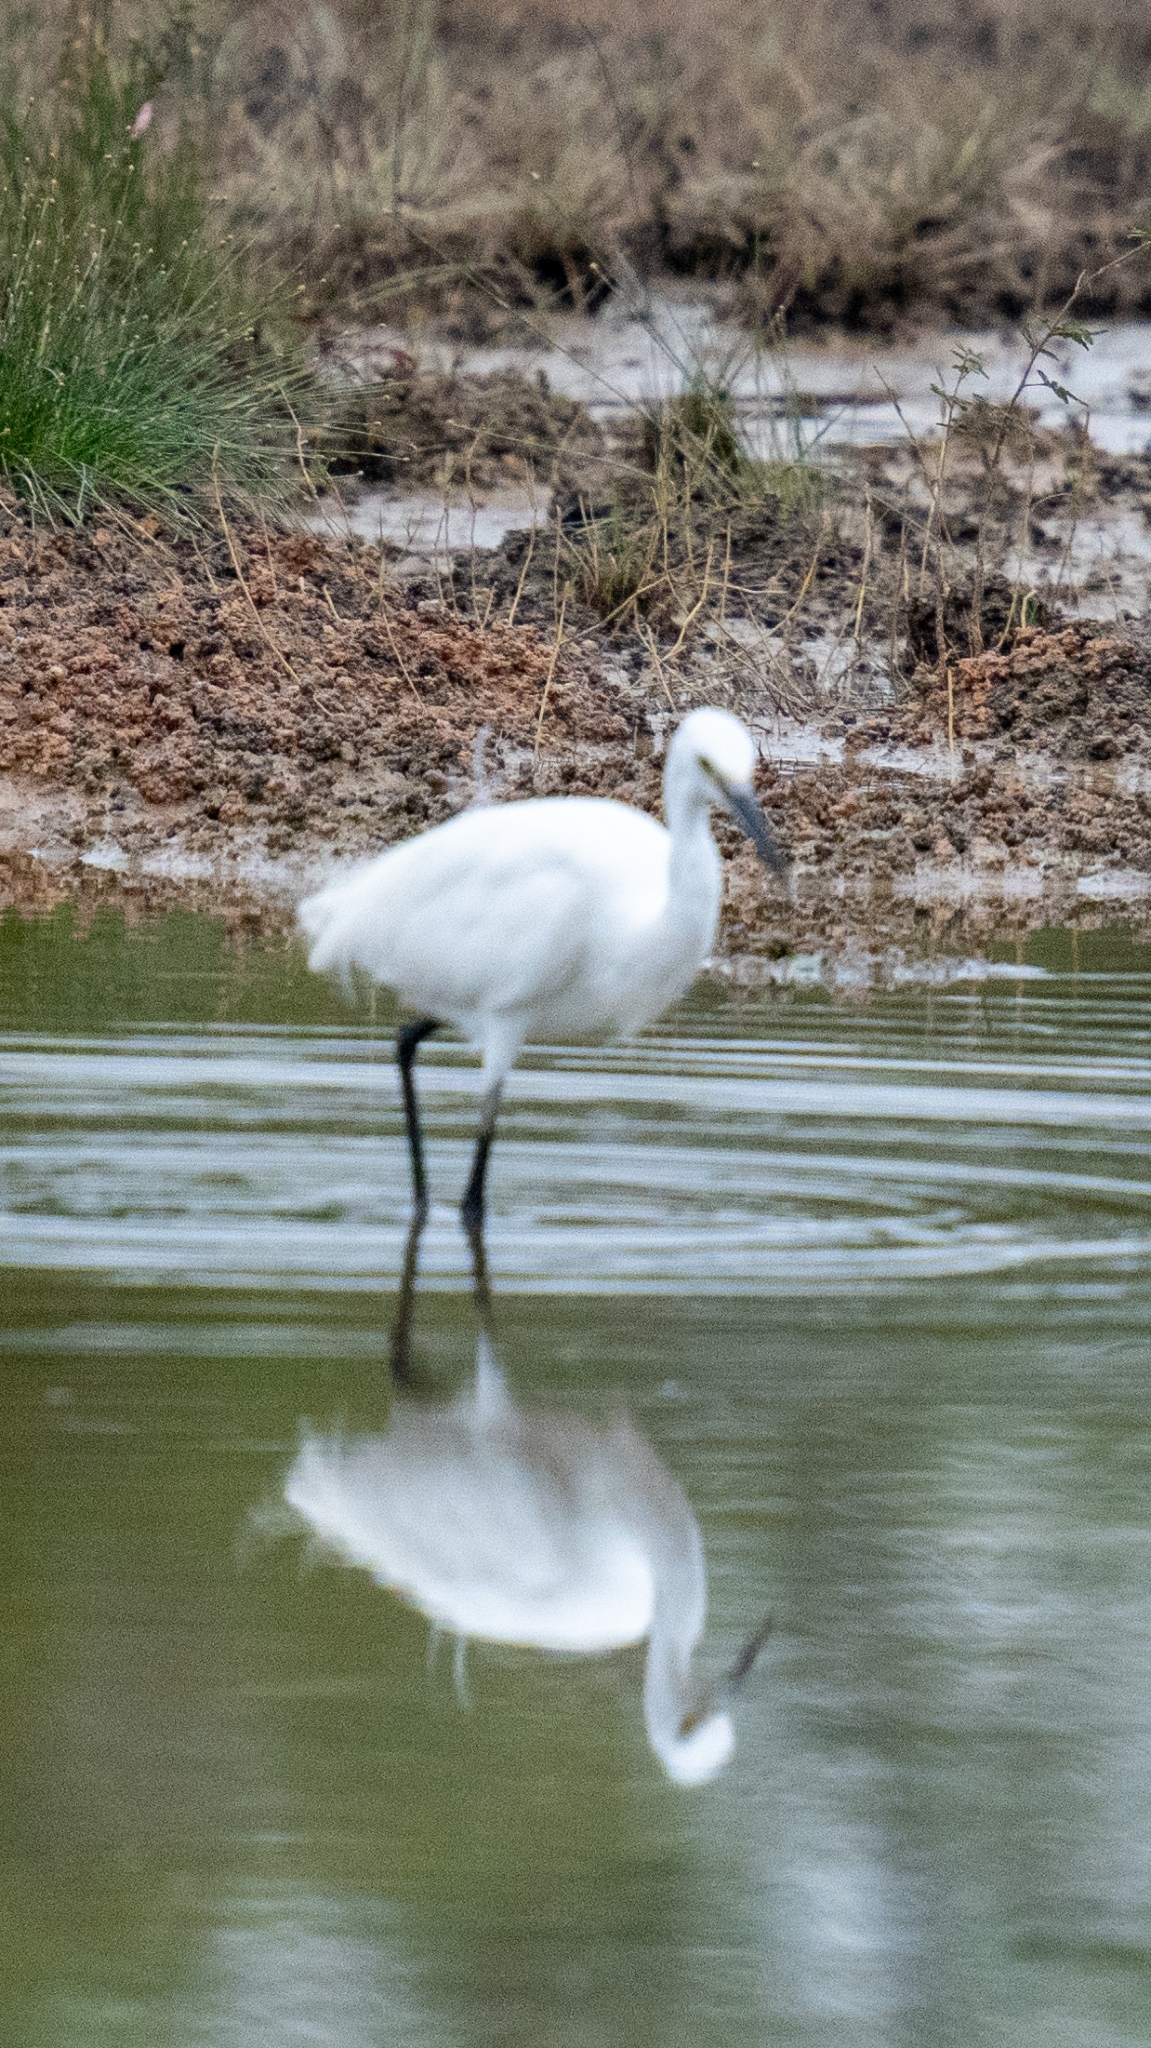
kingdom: Animalia
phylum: Chordata
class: Aves
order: Pelecaniformes
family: Ardeidae
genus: Egretta
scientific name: Egretta garzetta
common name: Little egret
